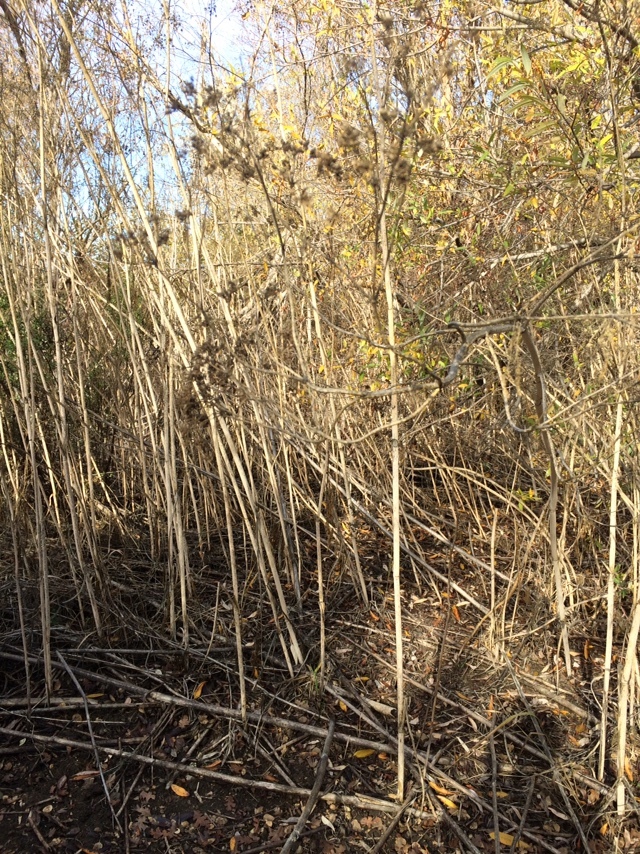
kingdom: Plantae
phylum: Tracheophyta
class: Magnoliopsida
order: Apiales
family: Apiaceae
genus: Conium
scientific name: Conium maculatum
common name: Hemlock
